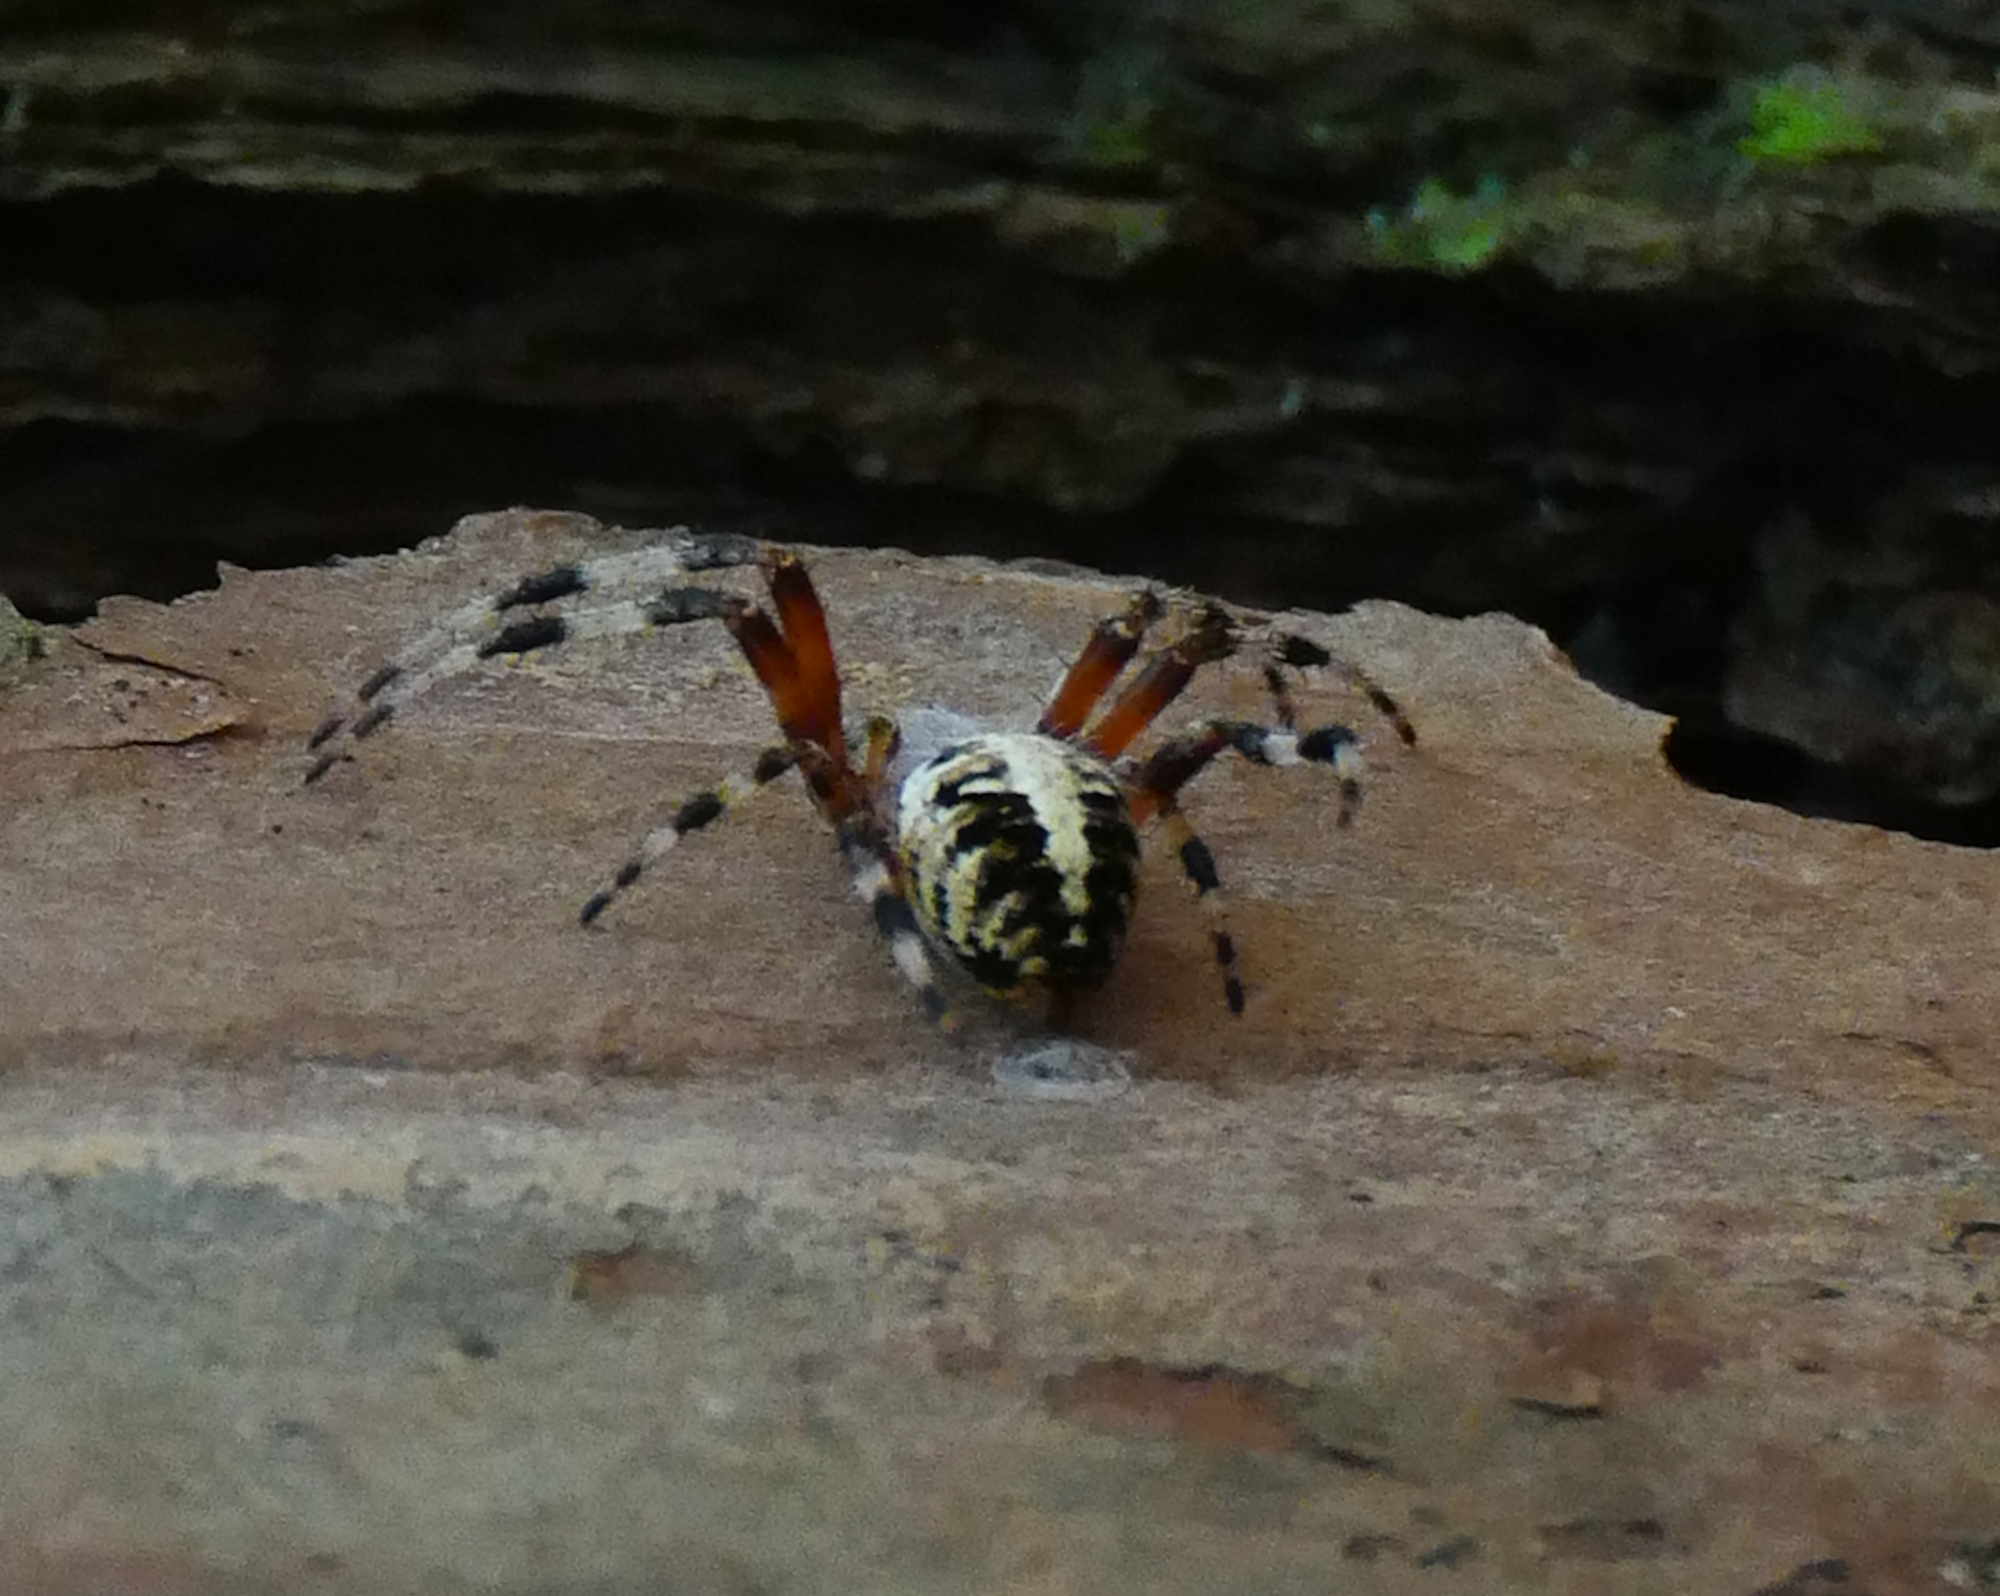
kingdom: Animalia
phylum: Arthropoda
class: Arachnida
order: Araneae
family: Araneidae
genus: Neoscona
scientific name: Neoscona domiciliorum
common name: Red-femured spotted orbweaver
